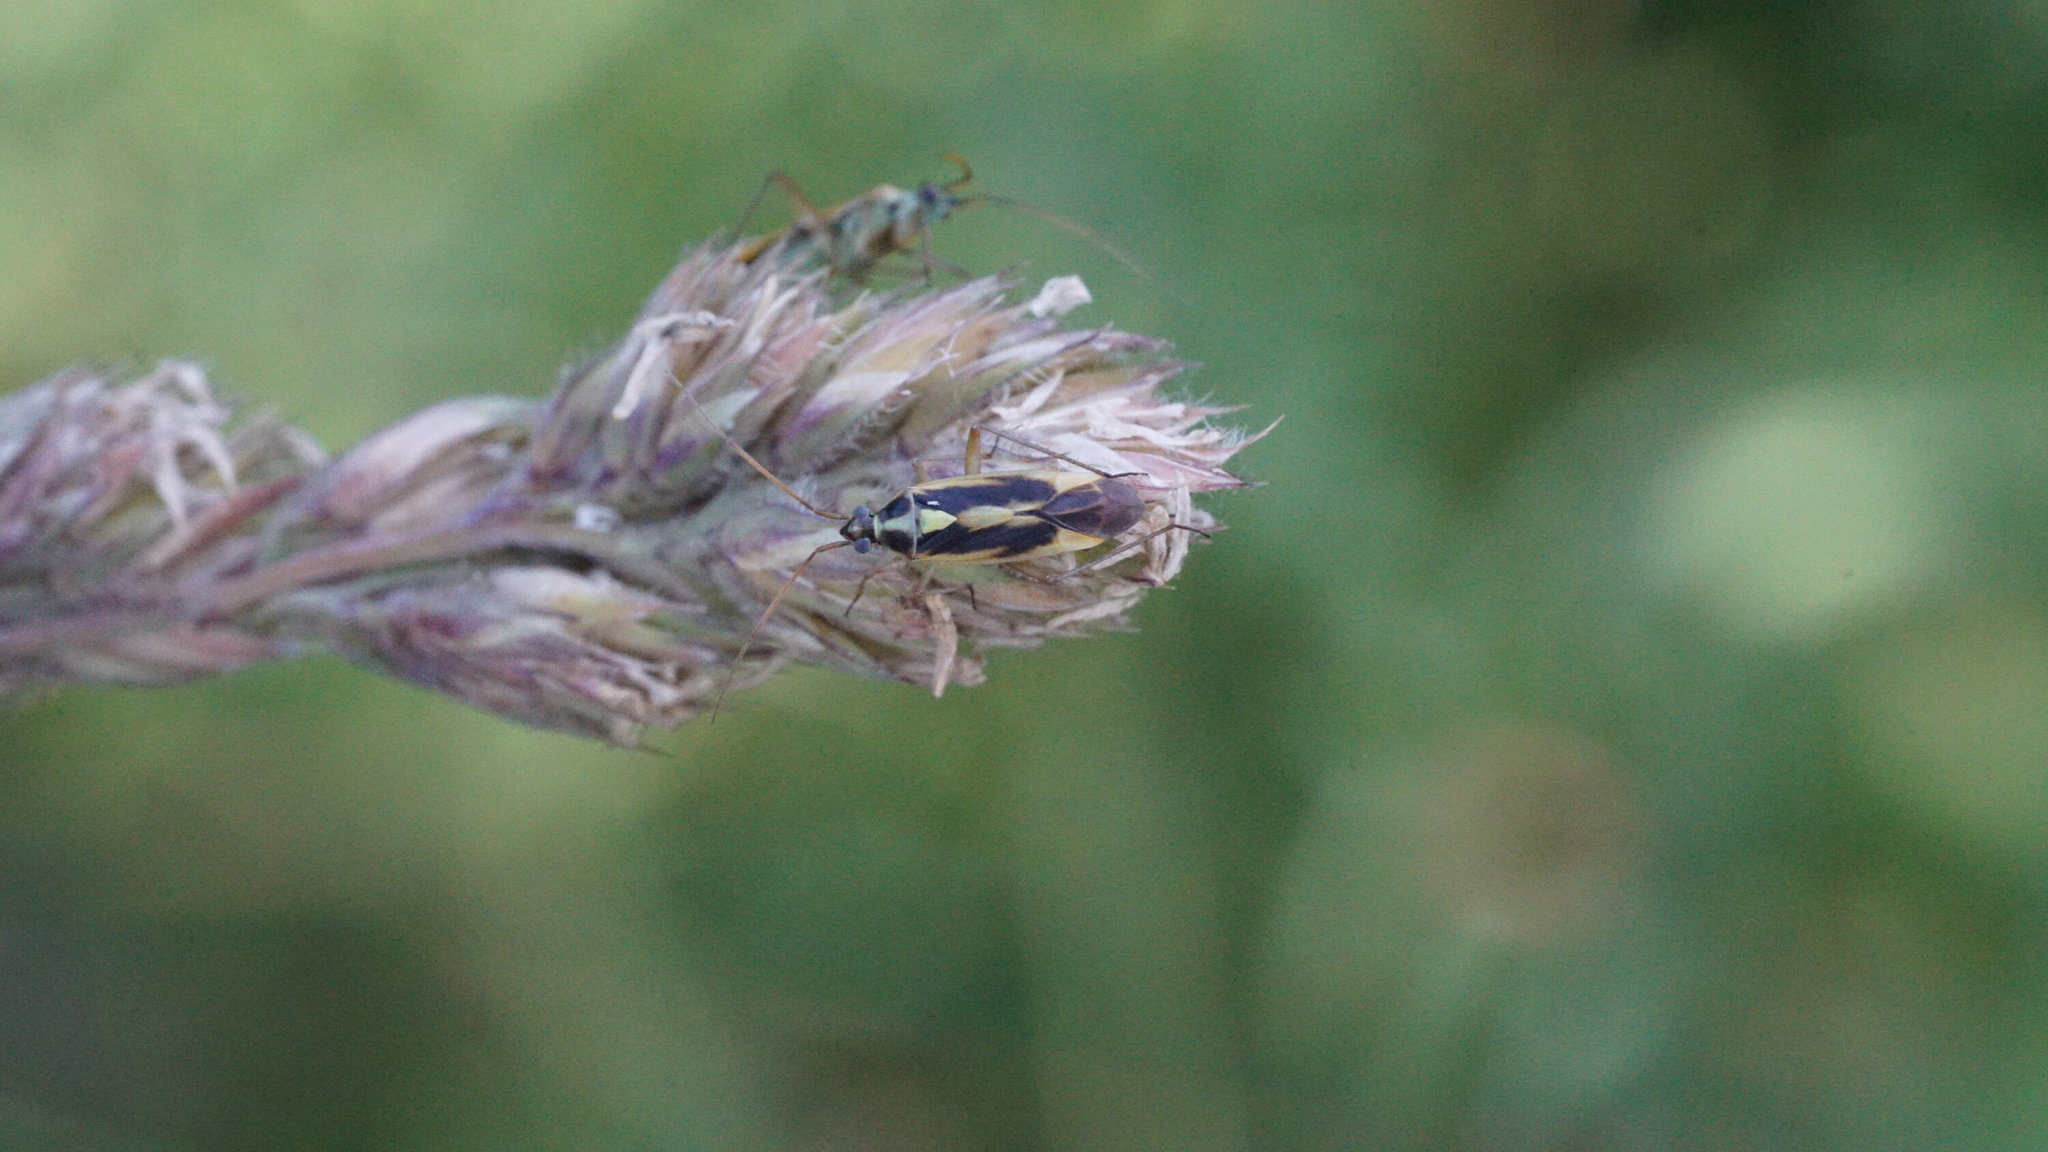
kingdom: Animalia
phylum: Arthropoda
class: Insecta
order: Hemiptera
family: Miridae
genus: Stenotus
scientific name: Stenotus binotatus
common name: Plant bug
